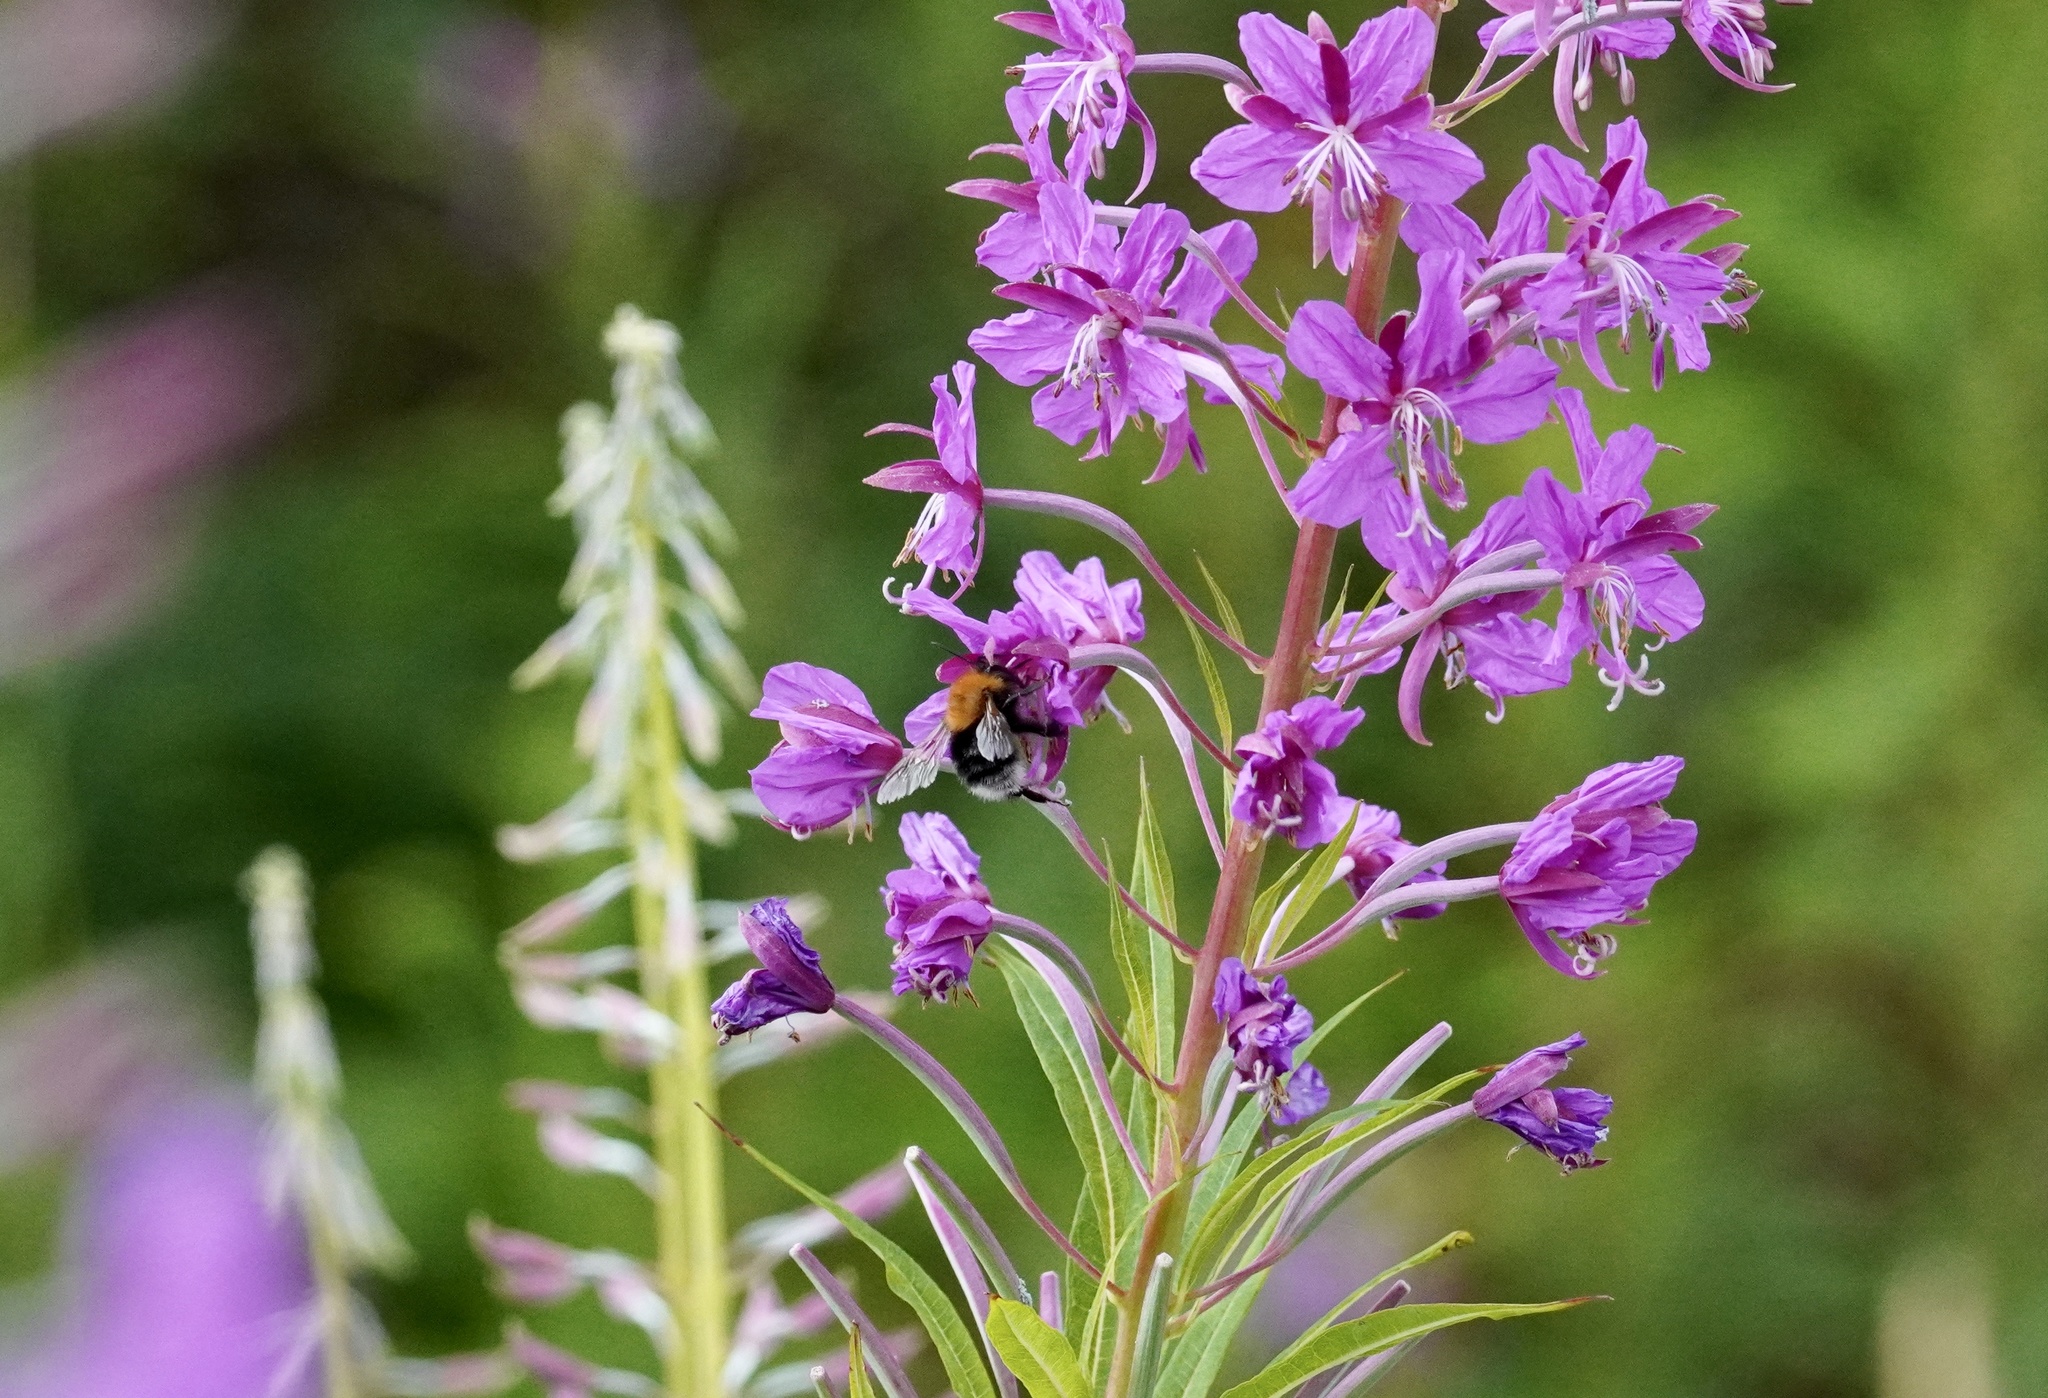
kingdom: Animalia
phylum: Arthropoda
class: Insecta
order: Hymenoptera
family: Apidae
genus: Bombus
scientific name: Bombus hypnorum
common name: New garden bumblebee
